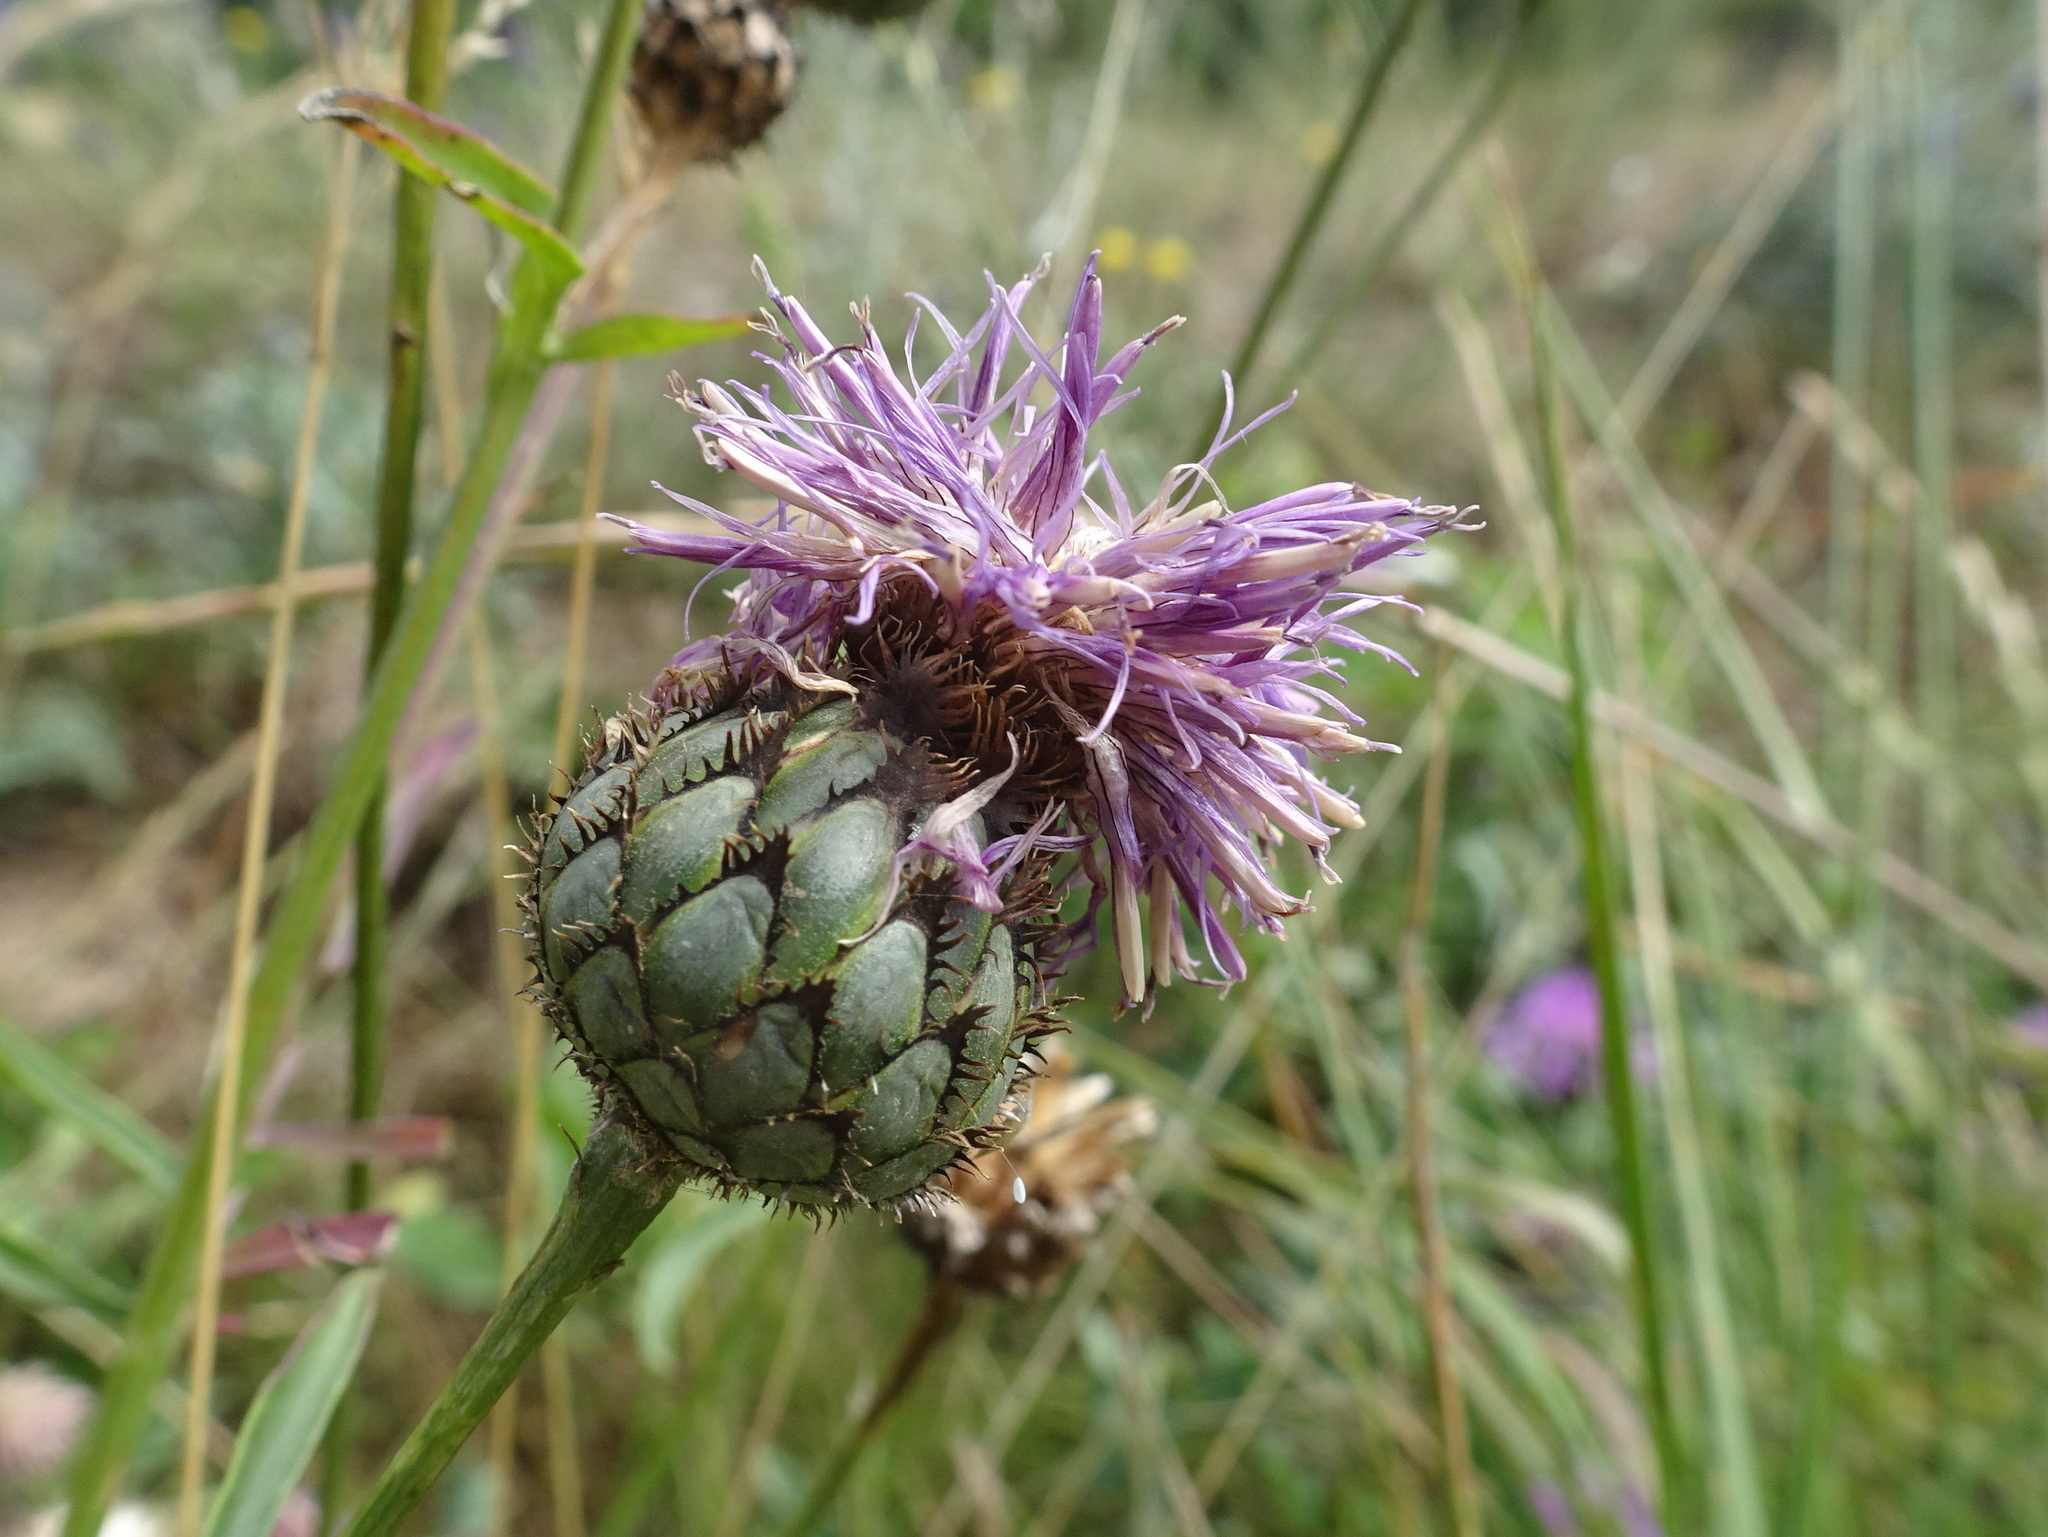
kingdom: Plantae
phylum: Tracheophyta
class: Magnoliopsida
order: Asterales
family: Asteraceae
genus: Centaurea
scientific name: Centaurea scabiosa
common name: Greater knapweed
